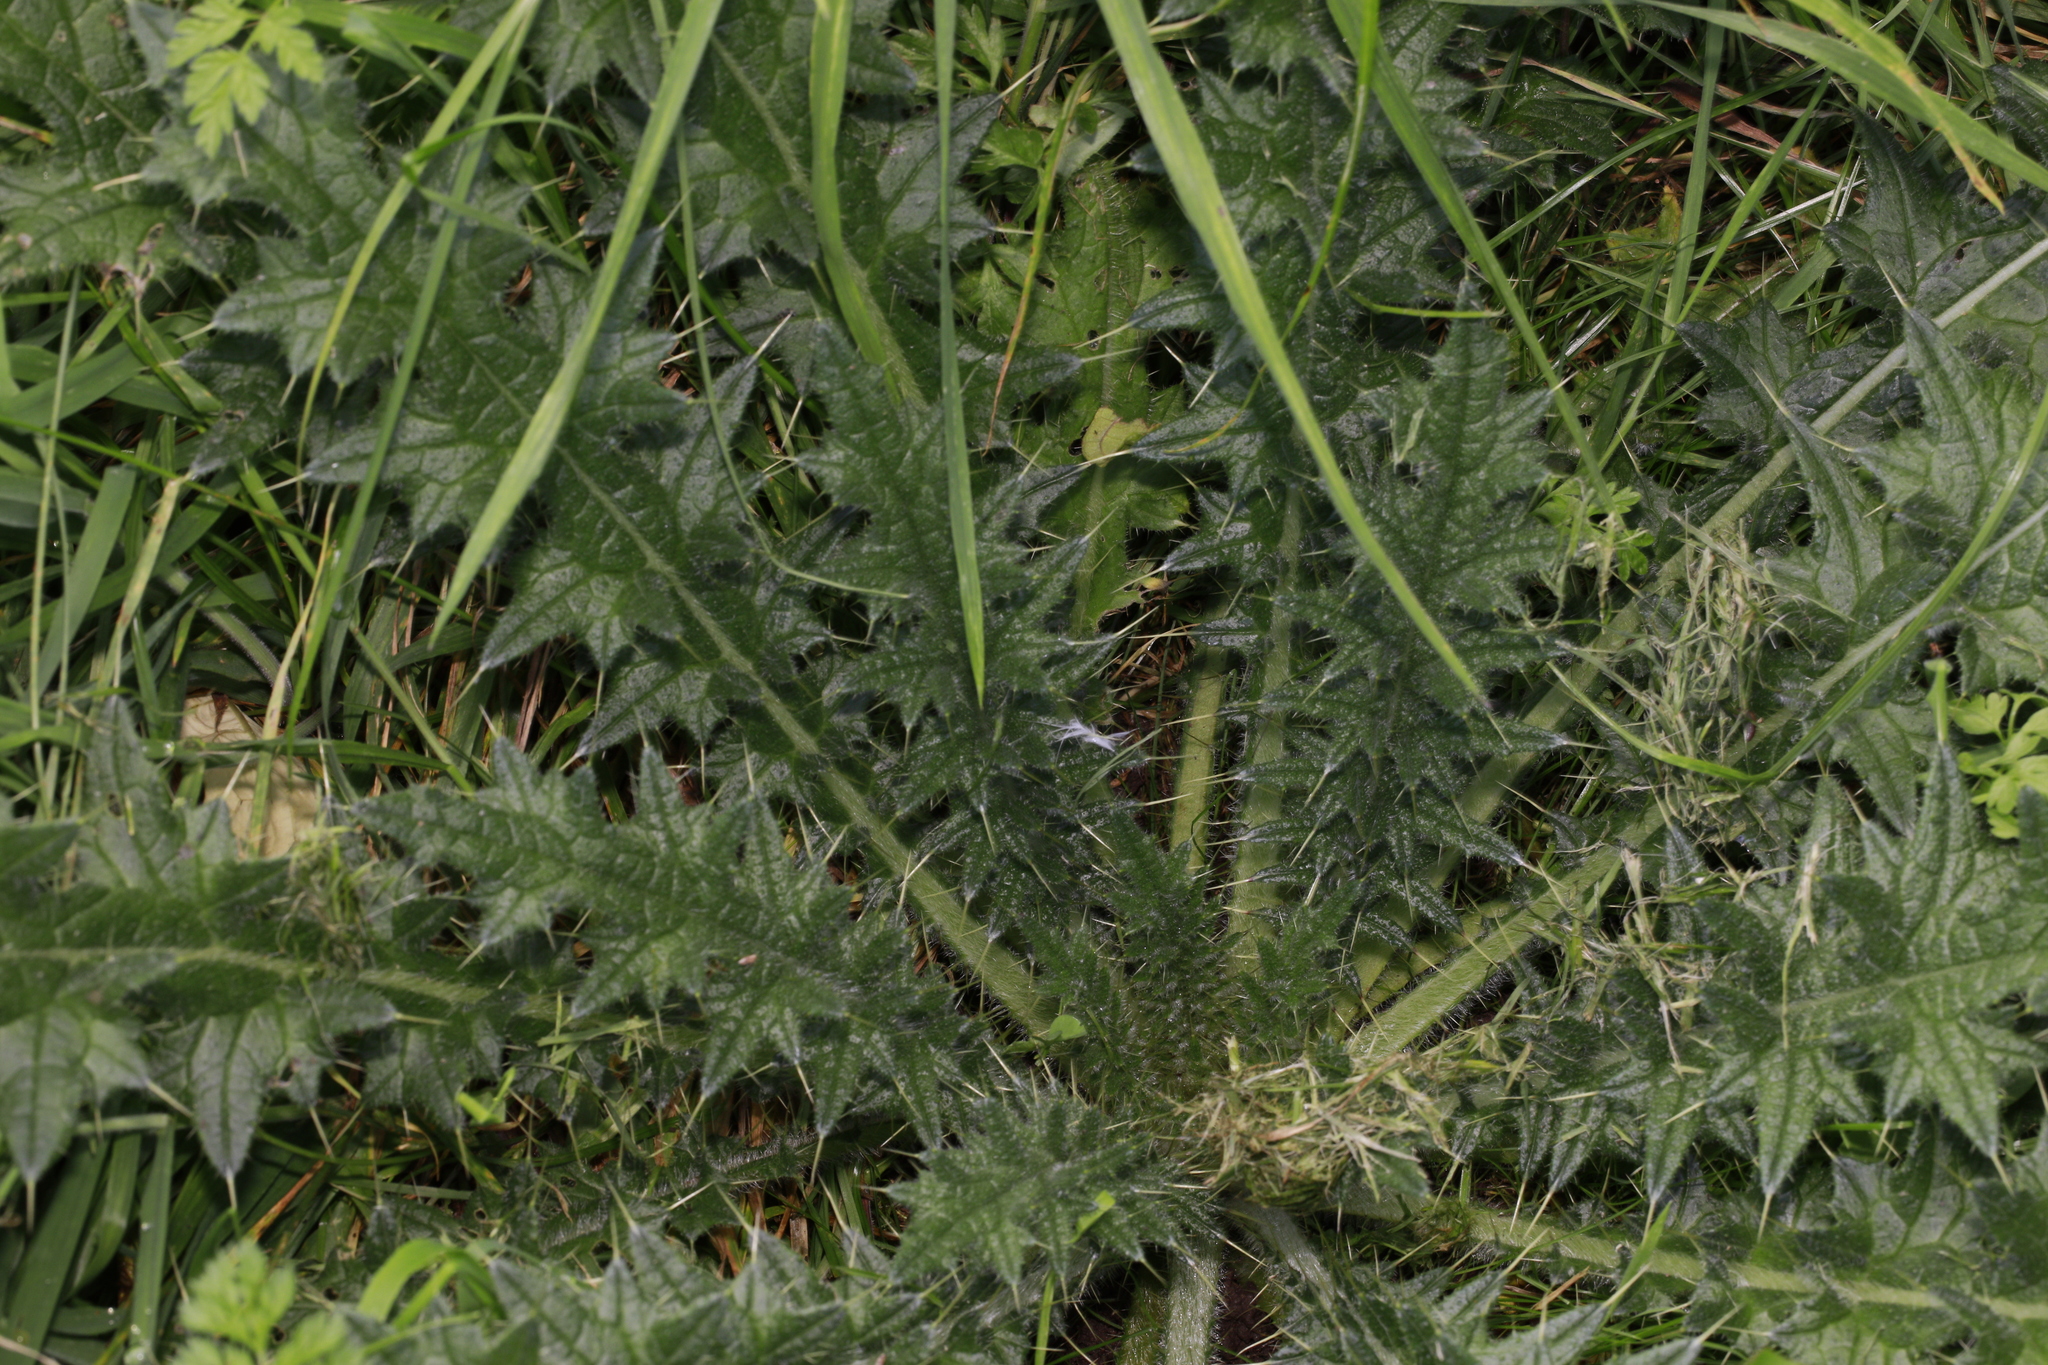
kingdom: Plantae
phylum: Tracheophyta
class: Magnoliopsida
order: Asterales
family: Asteraceae
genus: Cirsium
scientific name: Cirsium vulgare
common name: Bull thistle
